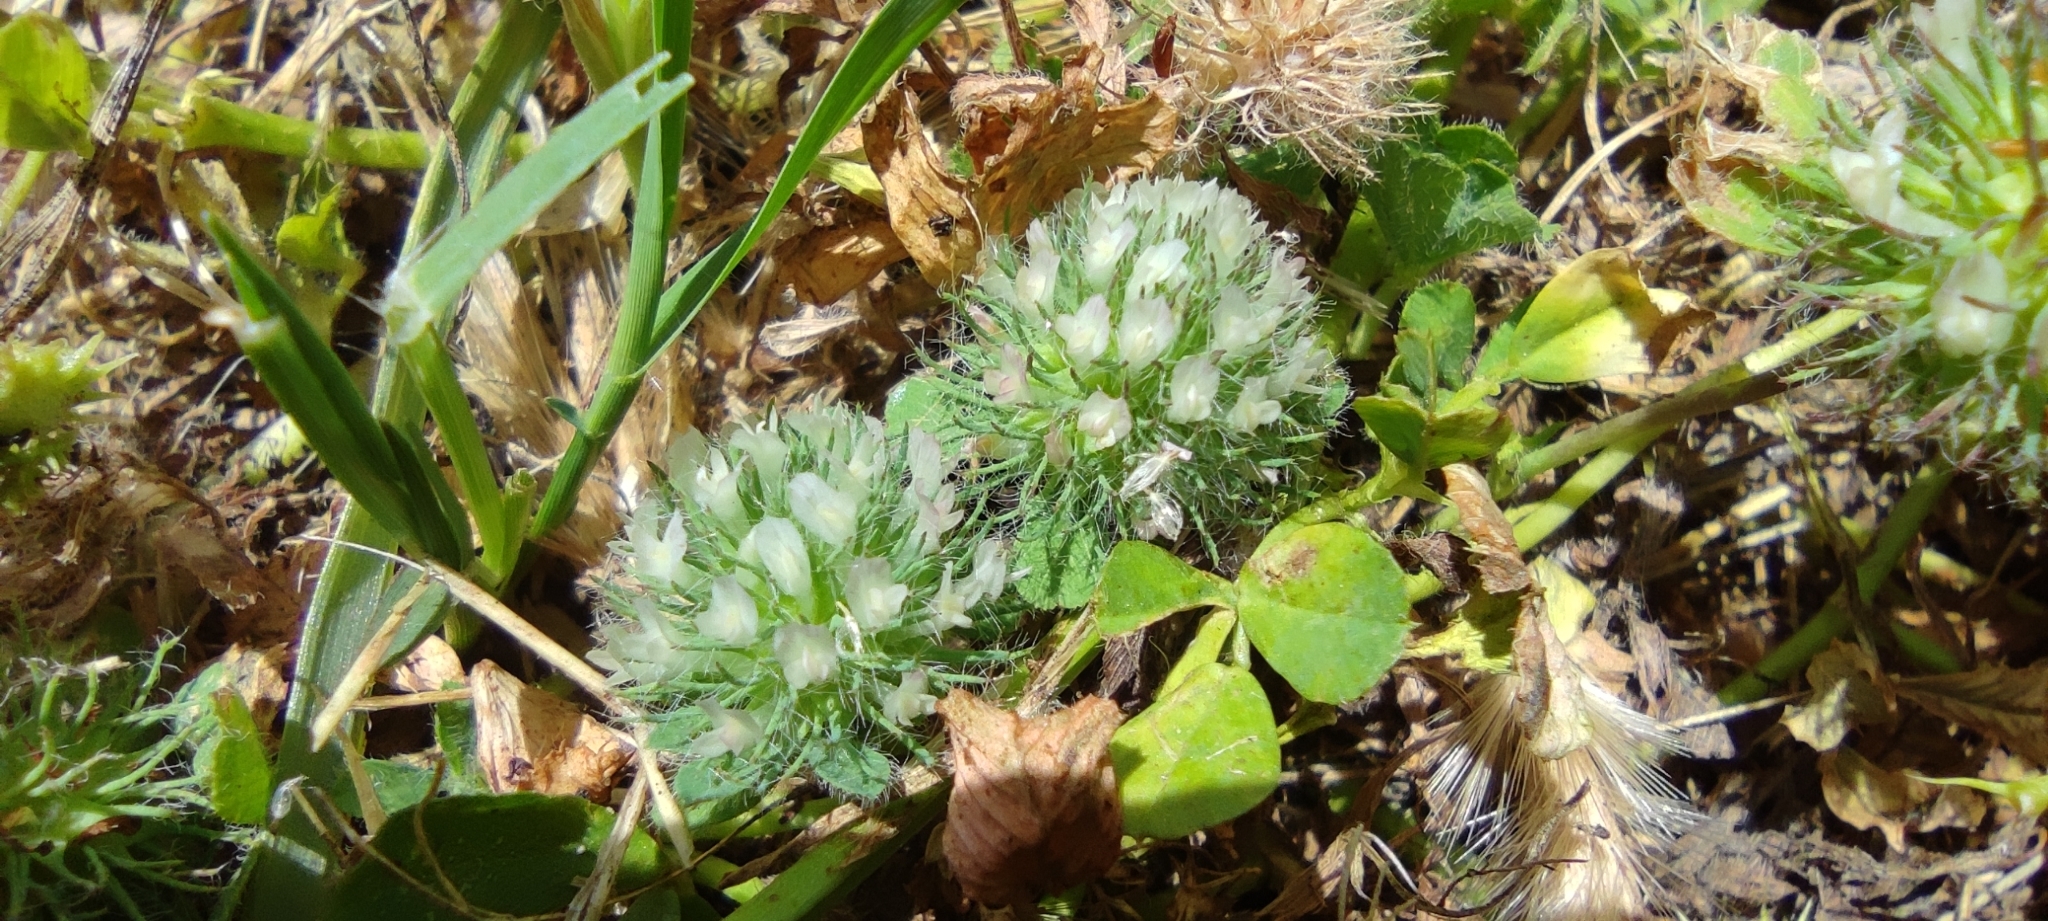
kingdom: Plantae
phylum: Tracheophyta
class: Magnoliopsida
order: Fabales
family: Fabaceae
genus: Trifolium
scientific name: Trifolium lappaceum
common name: Bur clover
